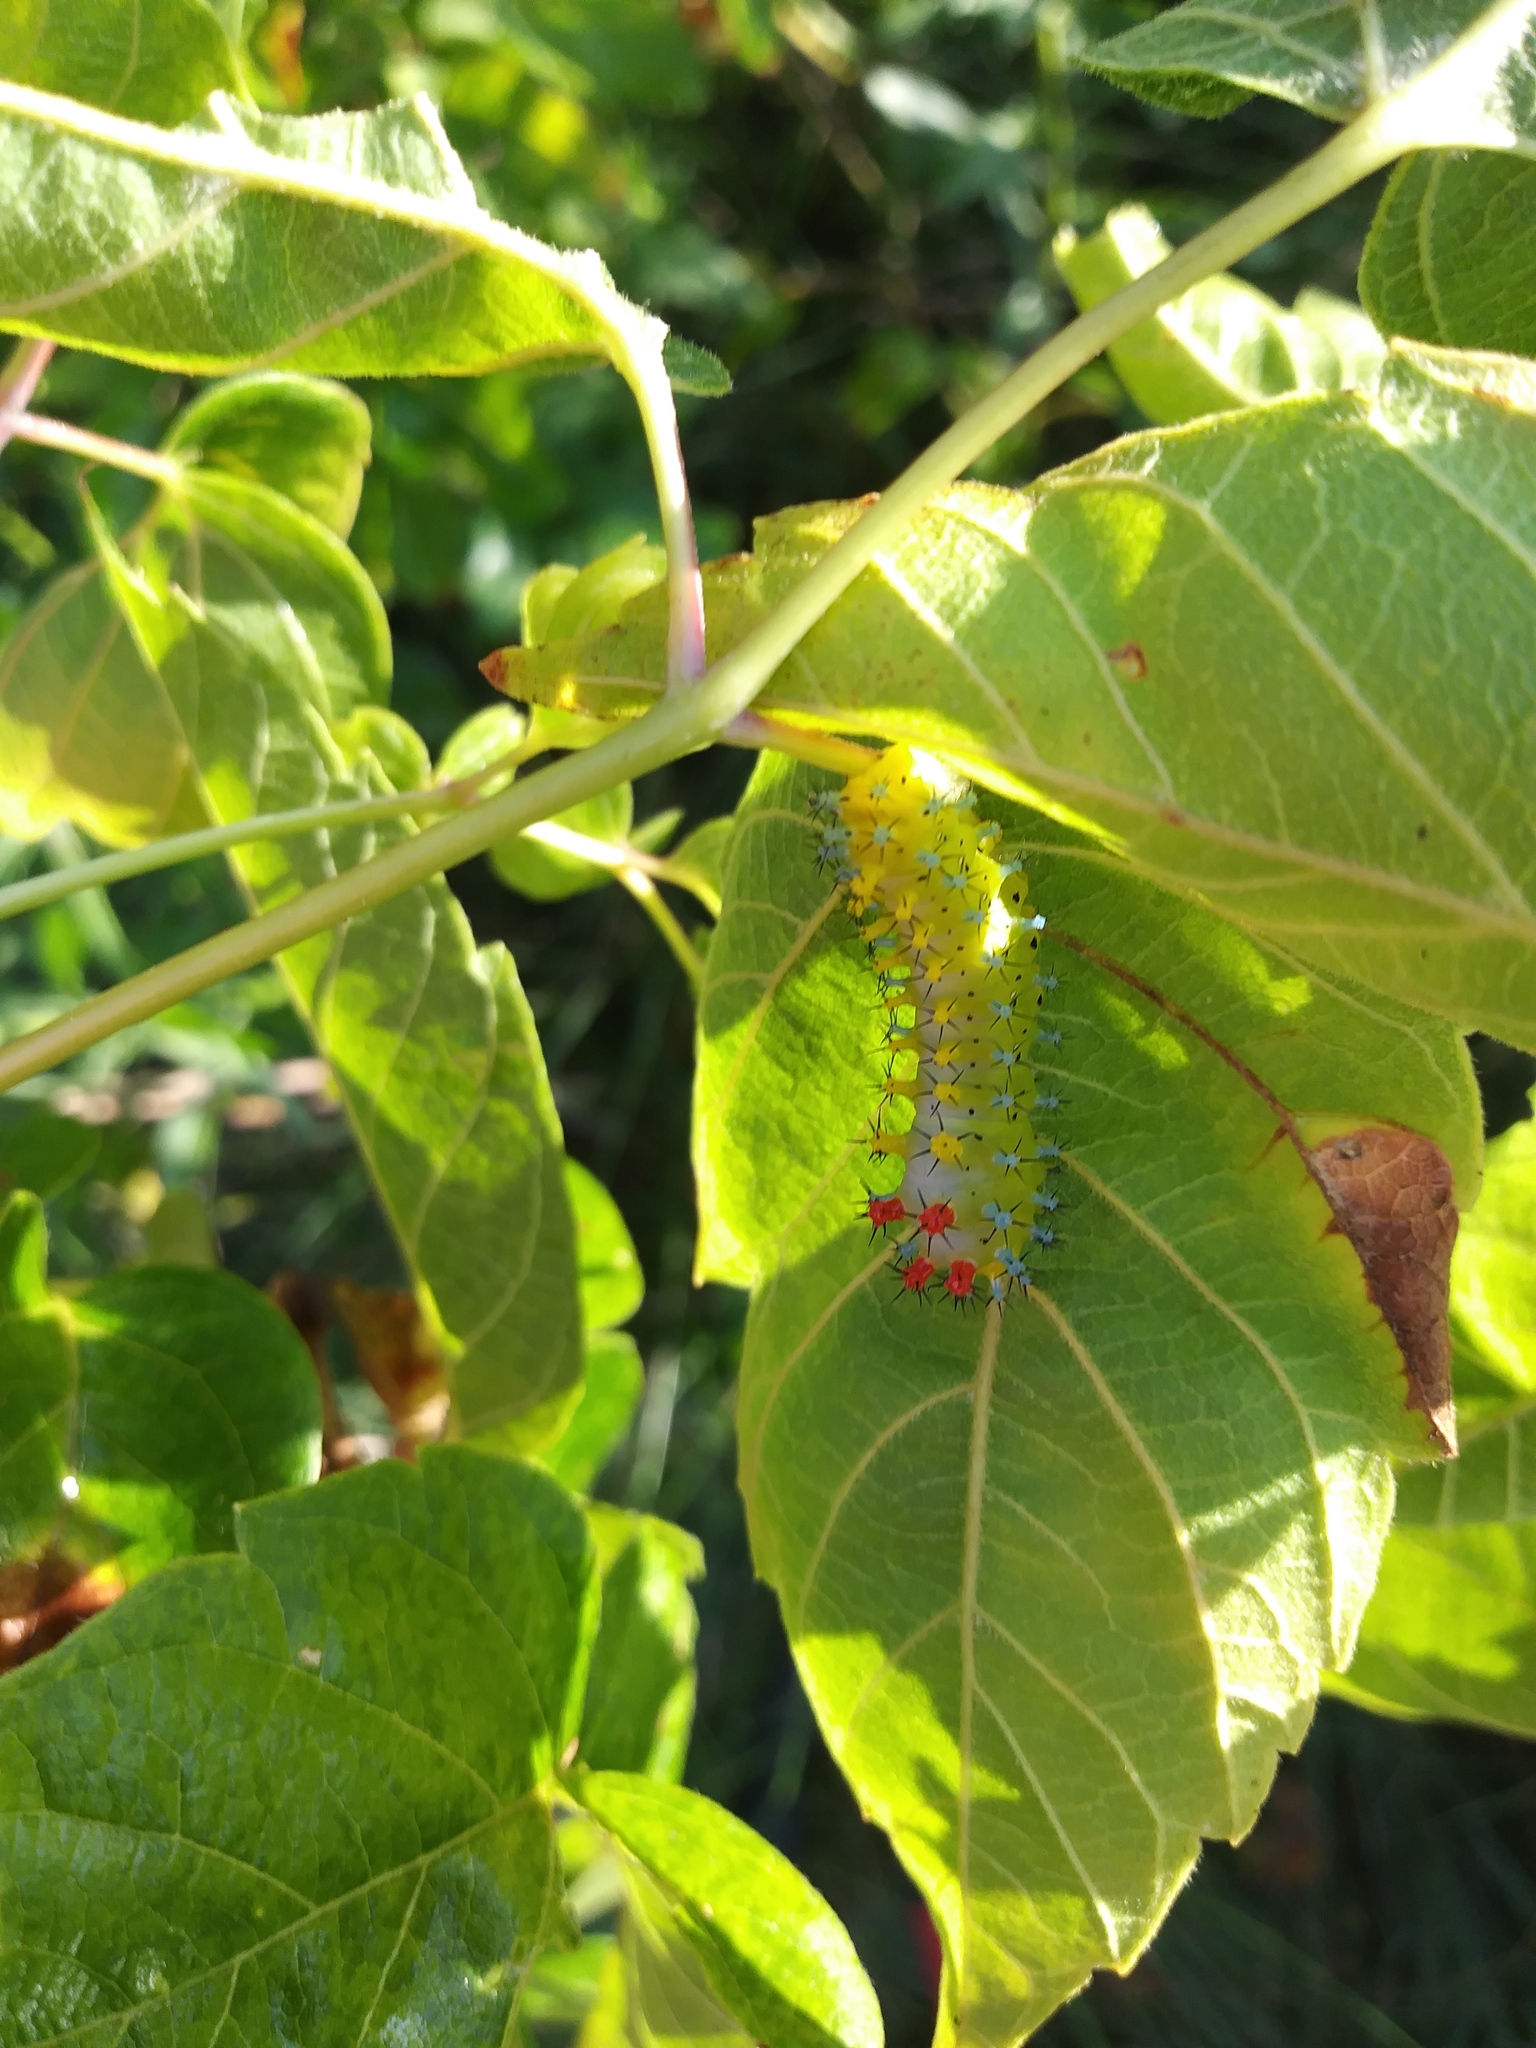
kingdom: Animalia
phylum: Arthropoda
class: Insecta
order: Lepidoptera
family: Saturniidae
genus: Hyalophora
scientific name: Hyalophora cecropia
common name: Cecropia silkmoth
